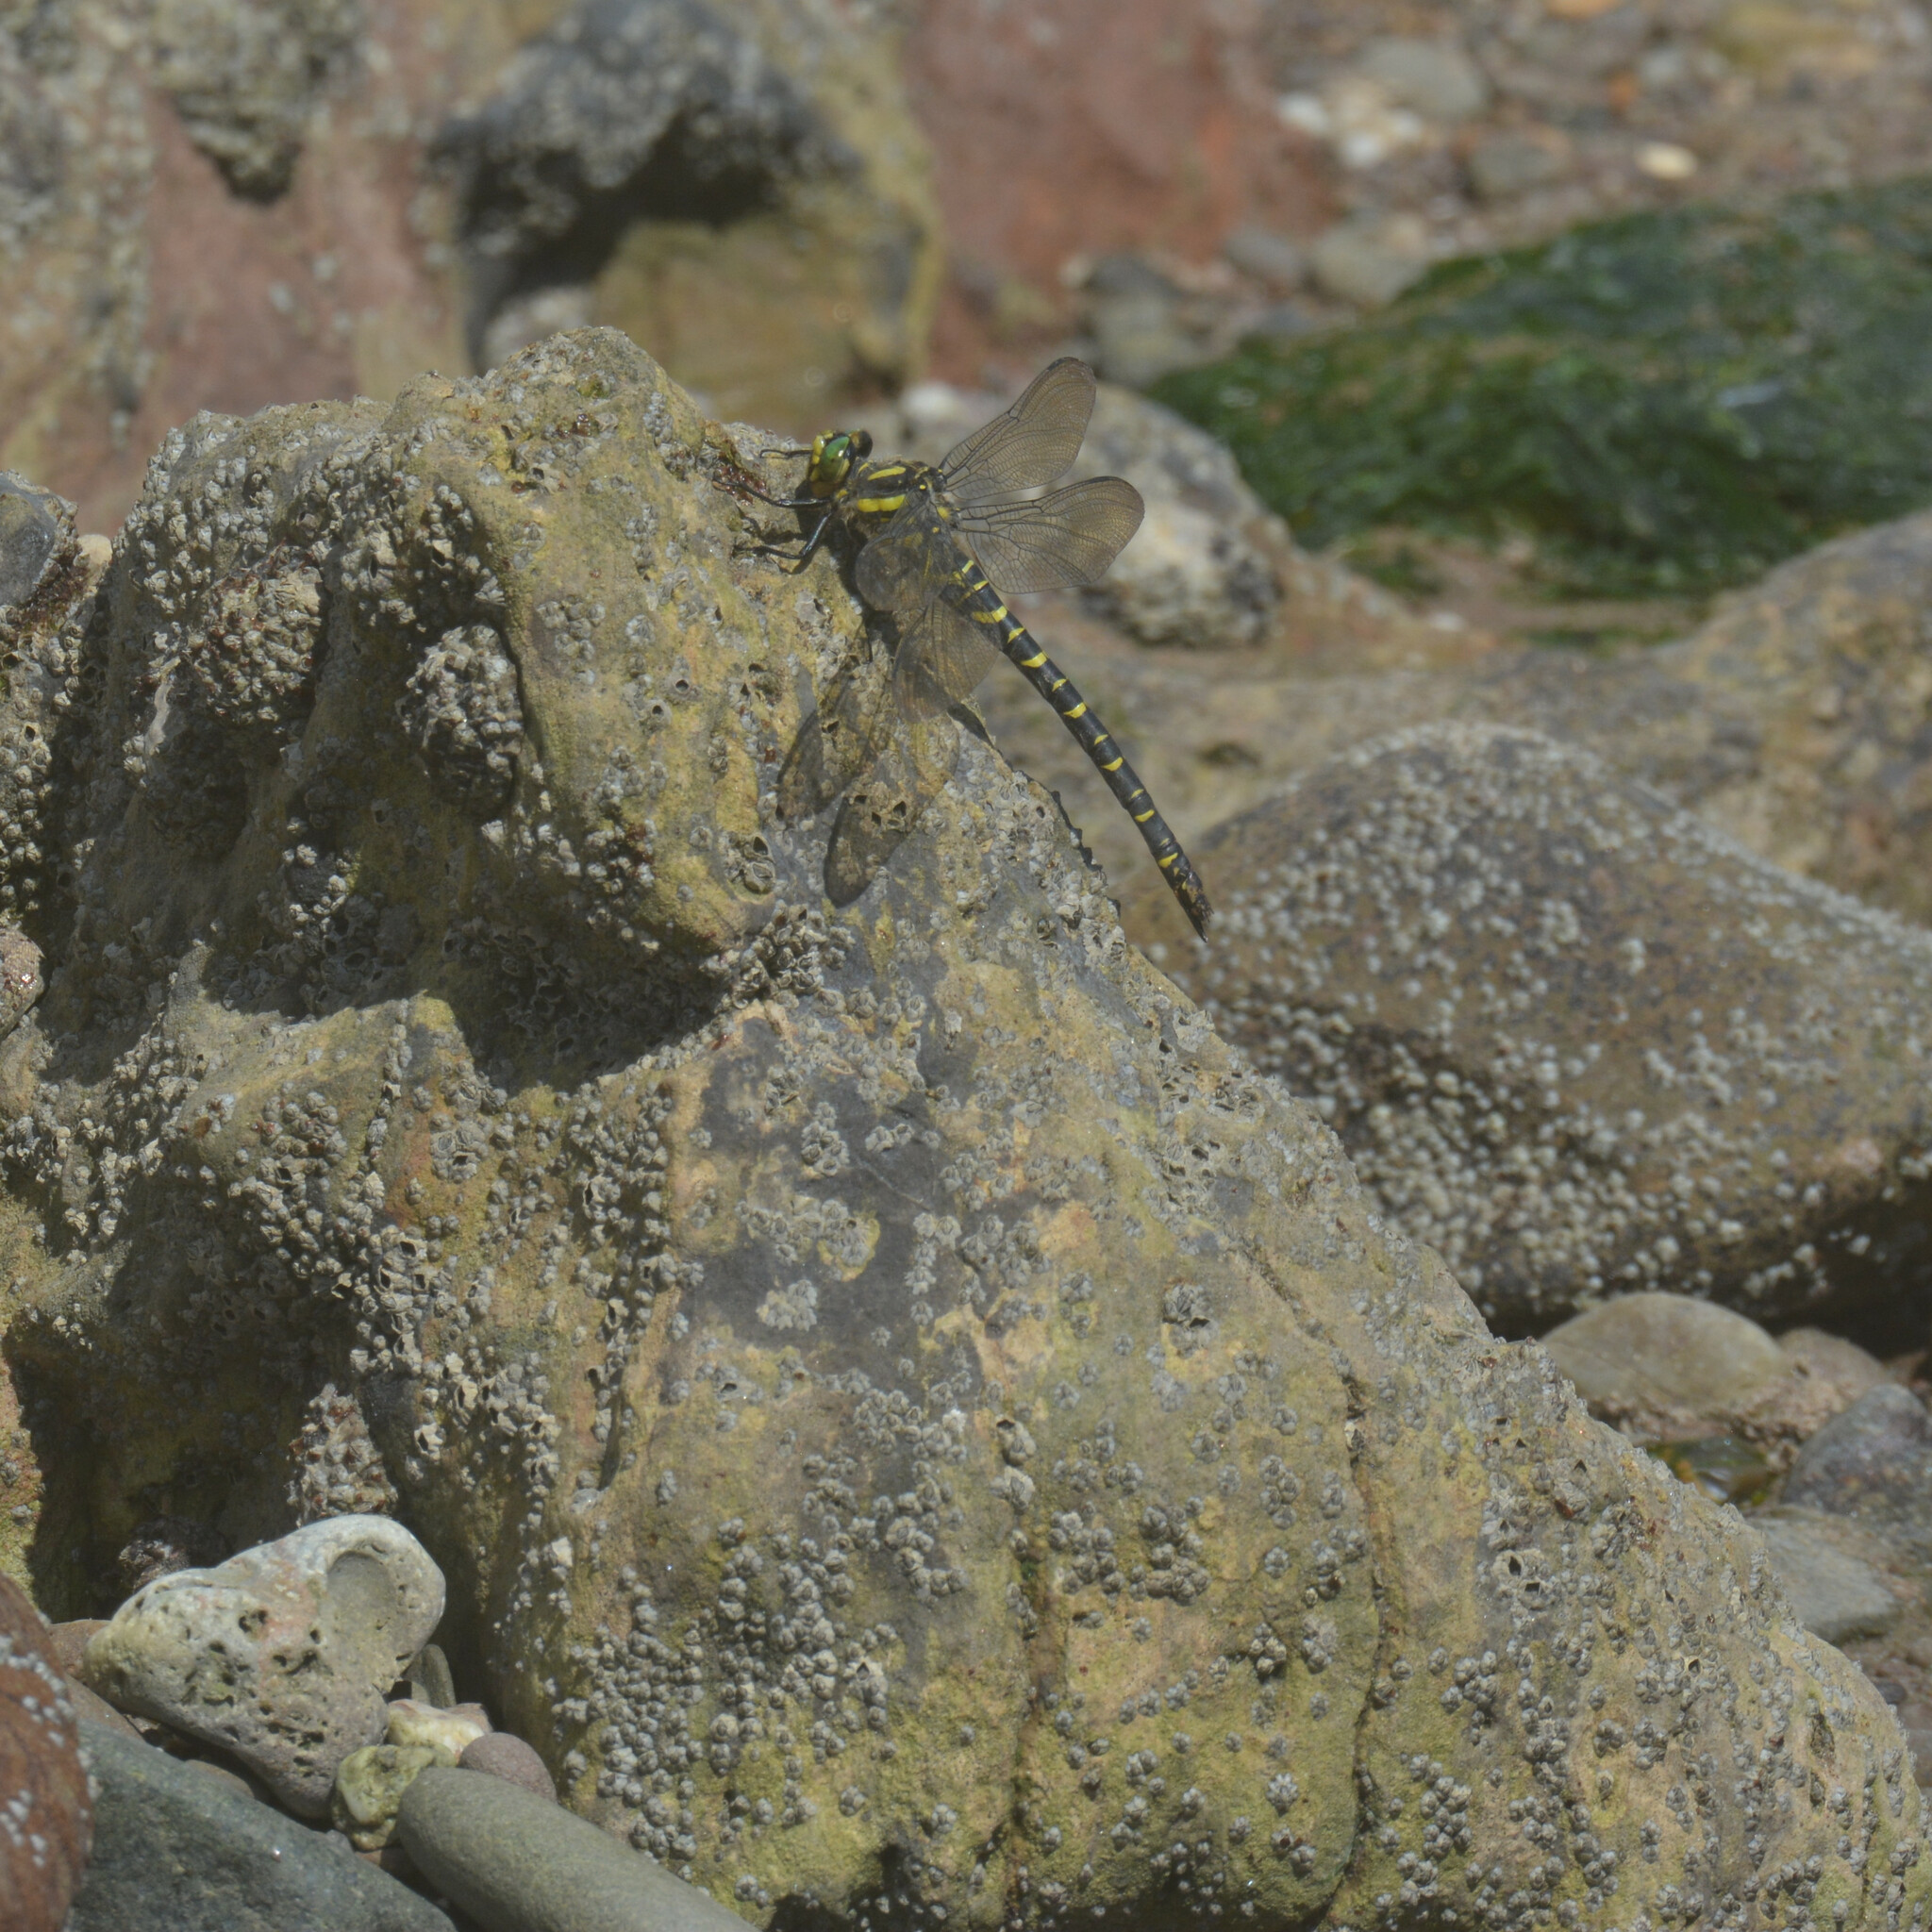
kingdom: Animalia
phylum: Arthropoda
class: Insecta
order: Odonata
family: Cordulegastridae
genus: Cordulegaster
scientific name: Cordulegaster boltonii
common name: Golden-ringed dragonfly
